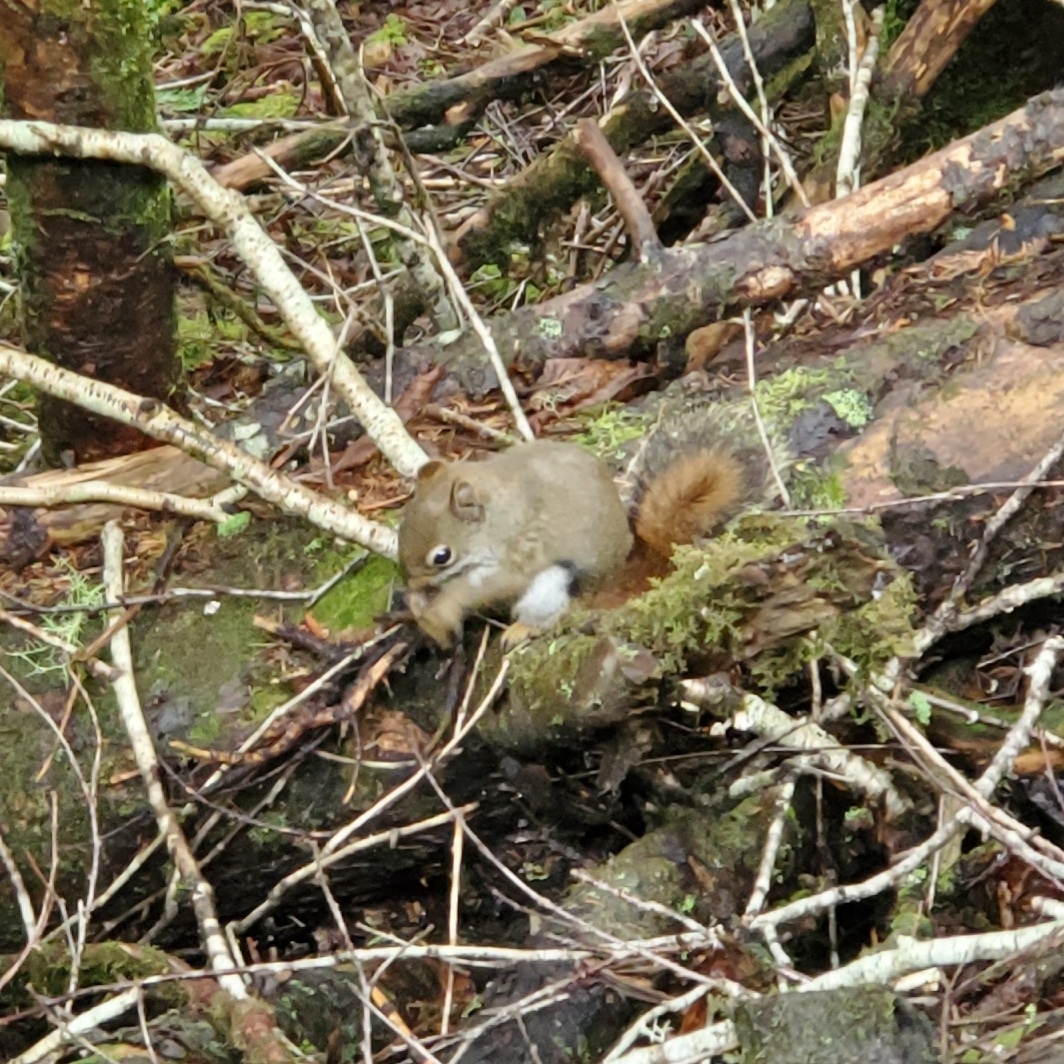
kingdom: Animalia
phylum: Chordata
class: Mammalia
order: Rodentia
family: Sciuridae
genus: Tamiasciurus
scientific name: Tamiasciurus hudsonicus
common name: Red squirrel
